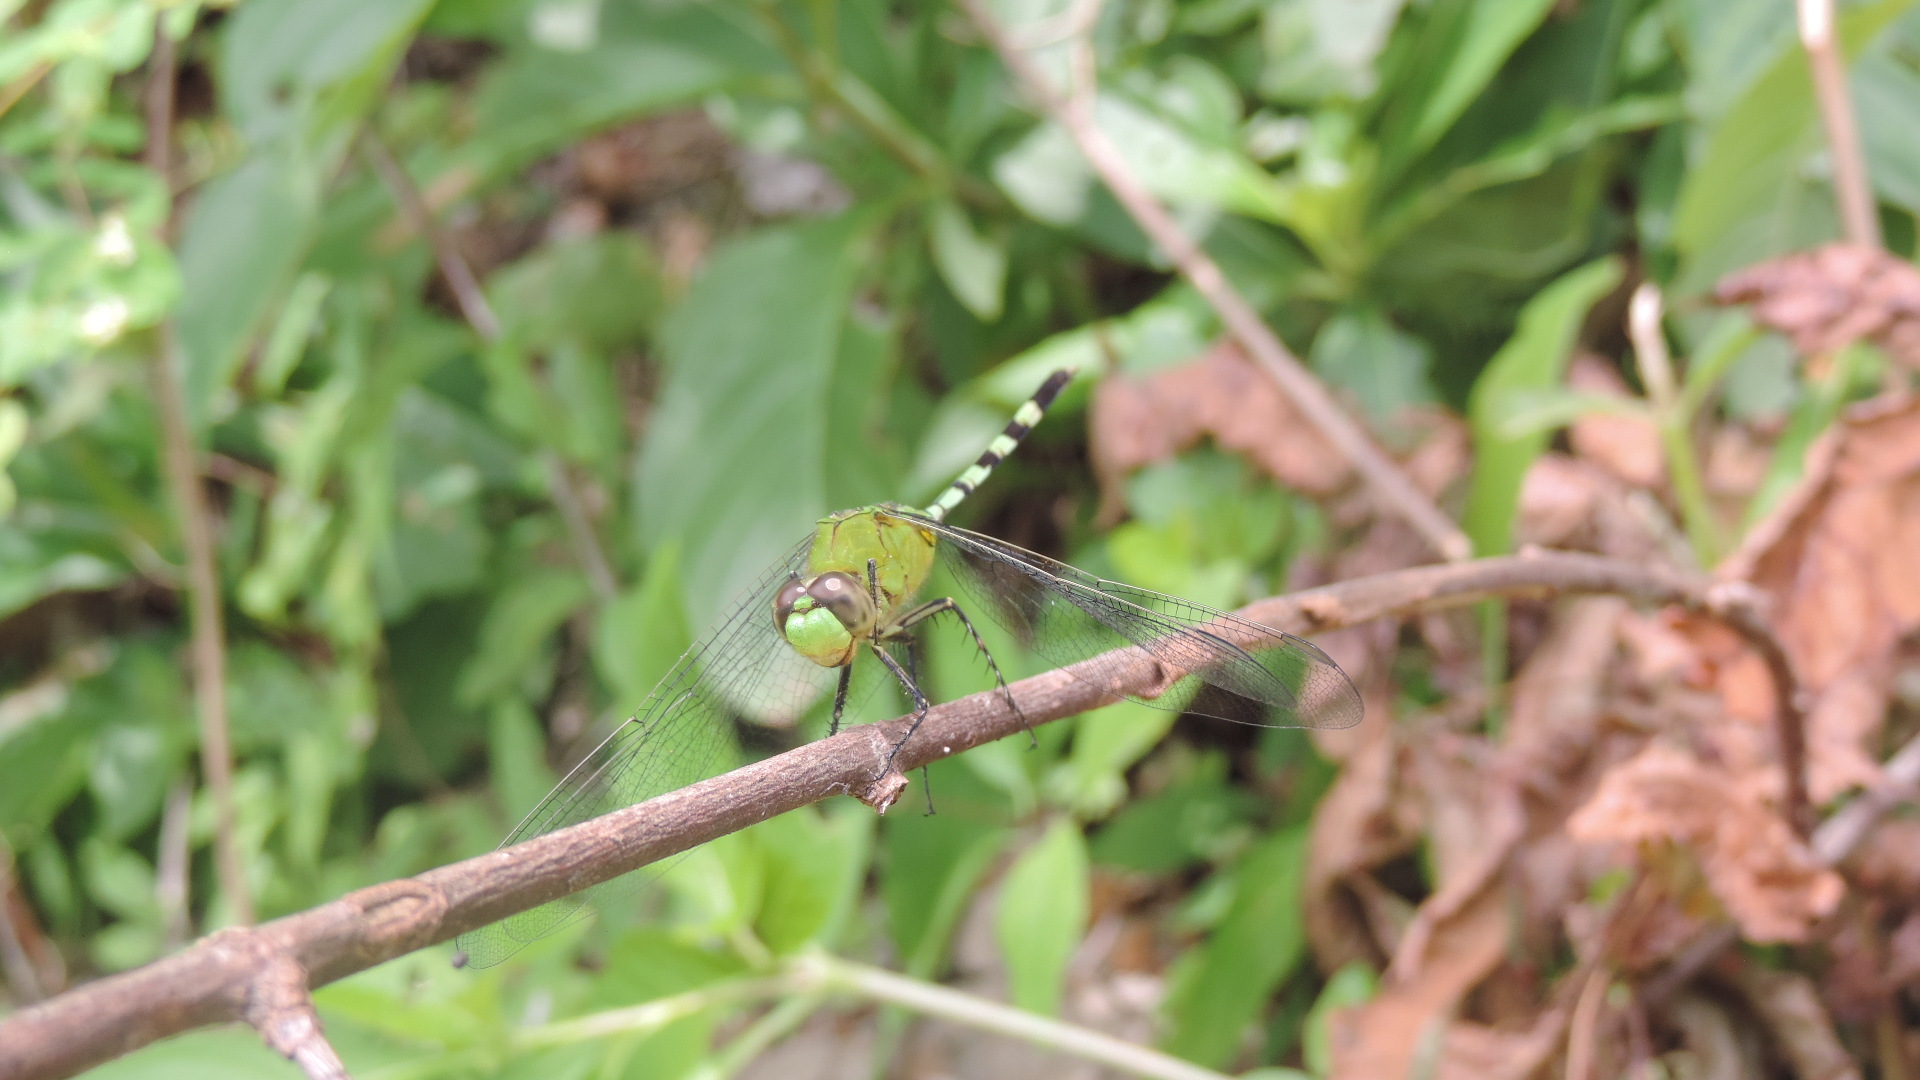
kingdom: Animalia
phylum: Arthropoda
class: Insecta
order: Odonata
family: Libellulidae
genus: Erythemis
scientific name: Erythemis vesiculosa
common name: Great pondhawk
